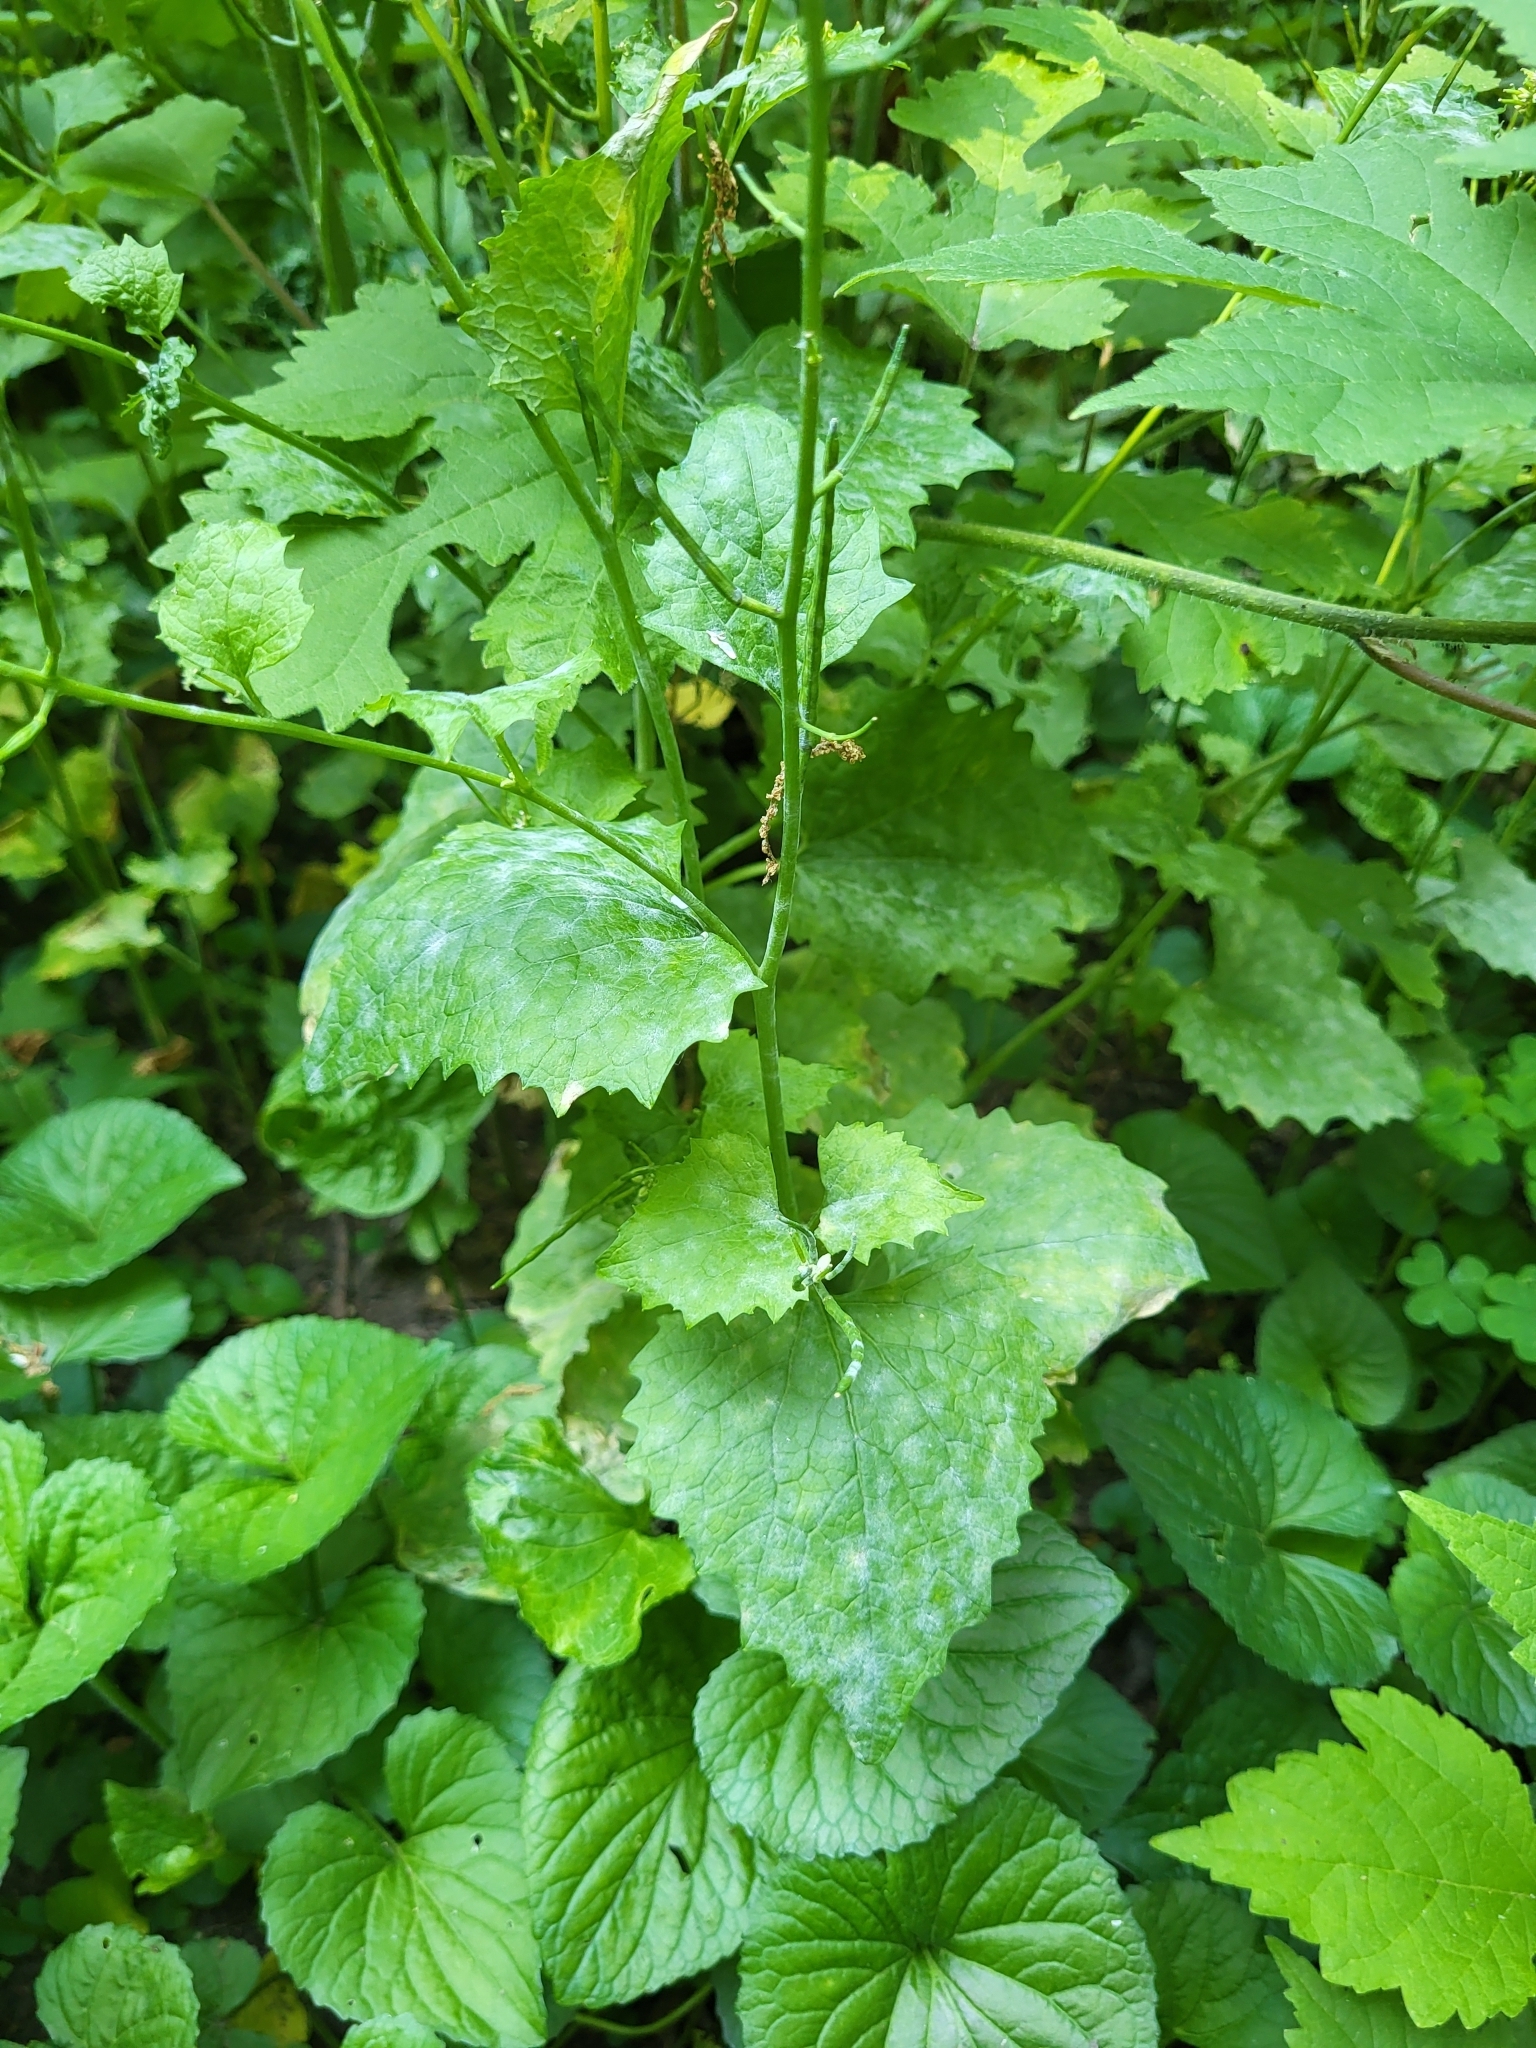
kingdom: Fungi
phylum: Ascomycota
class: Leotiomycetes
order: Helotiales
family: Erysiphaceae
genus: Erysiphe
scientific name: Erysiphe cruciferarum
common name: Brassica powdery mildew
